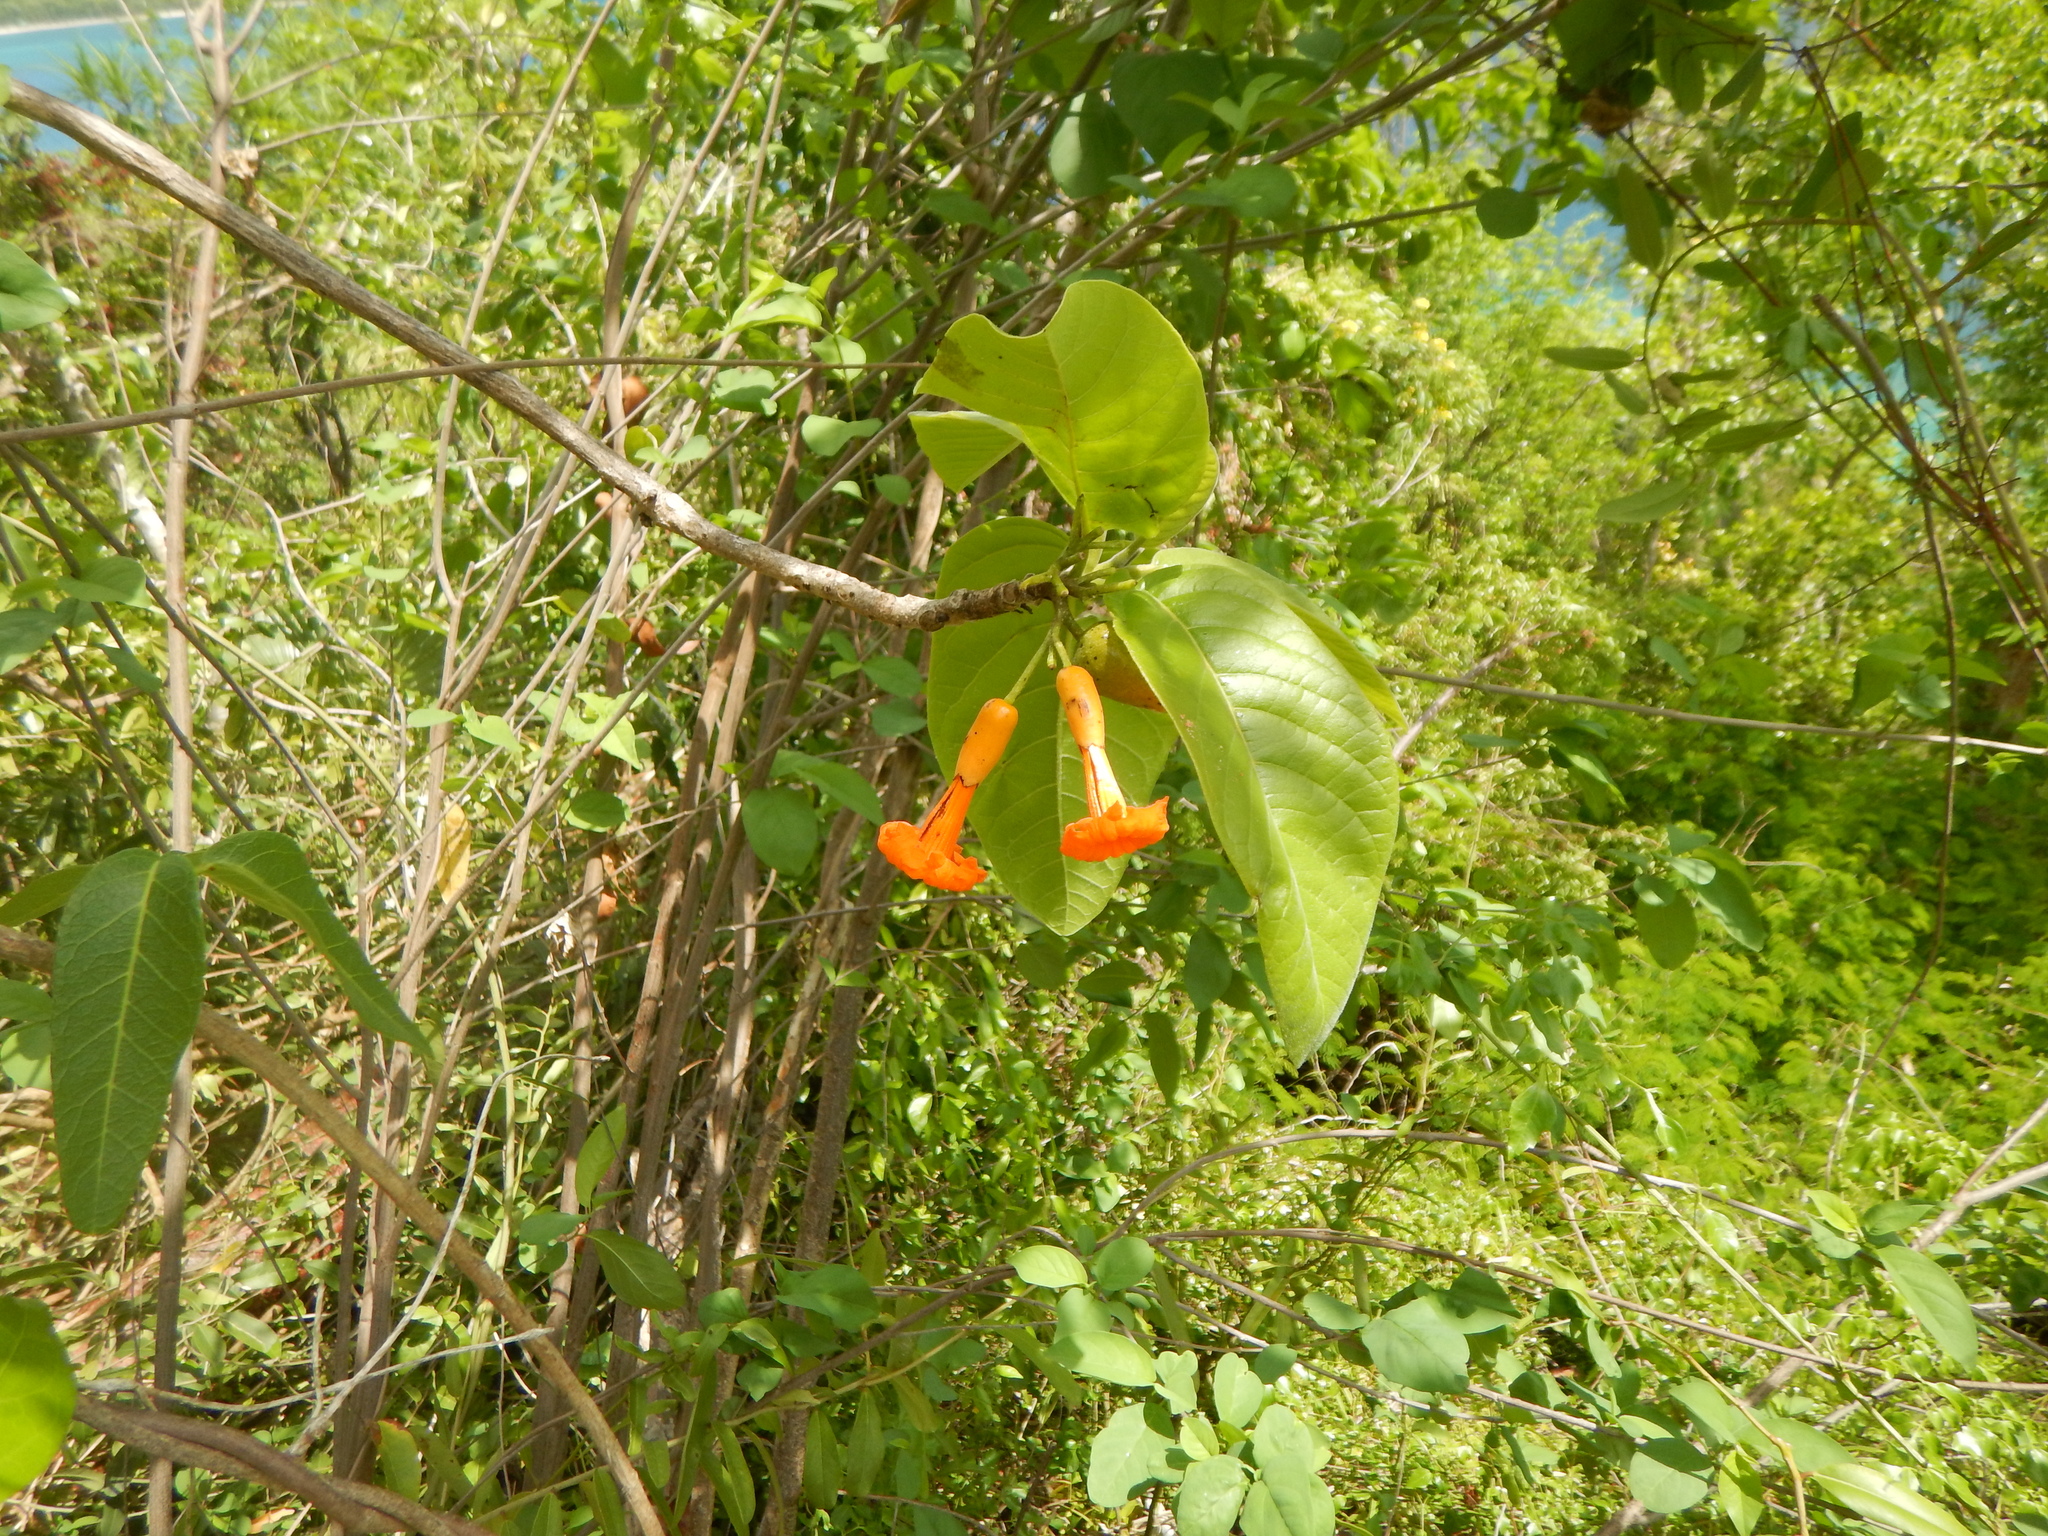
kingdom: Plantae
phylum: Tracheophyta
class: Magnoliopsida
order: Boraginales
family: Cordiaceae
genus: Cordia
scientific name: Cordia rickseckeri
